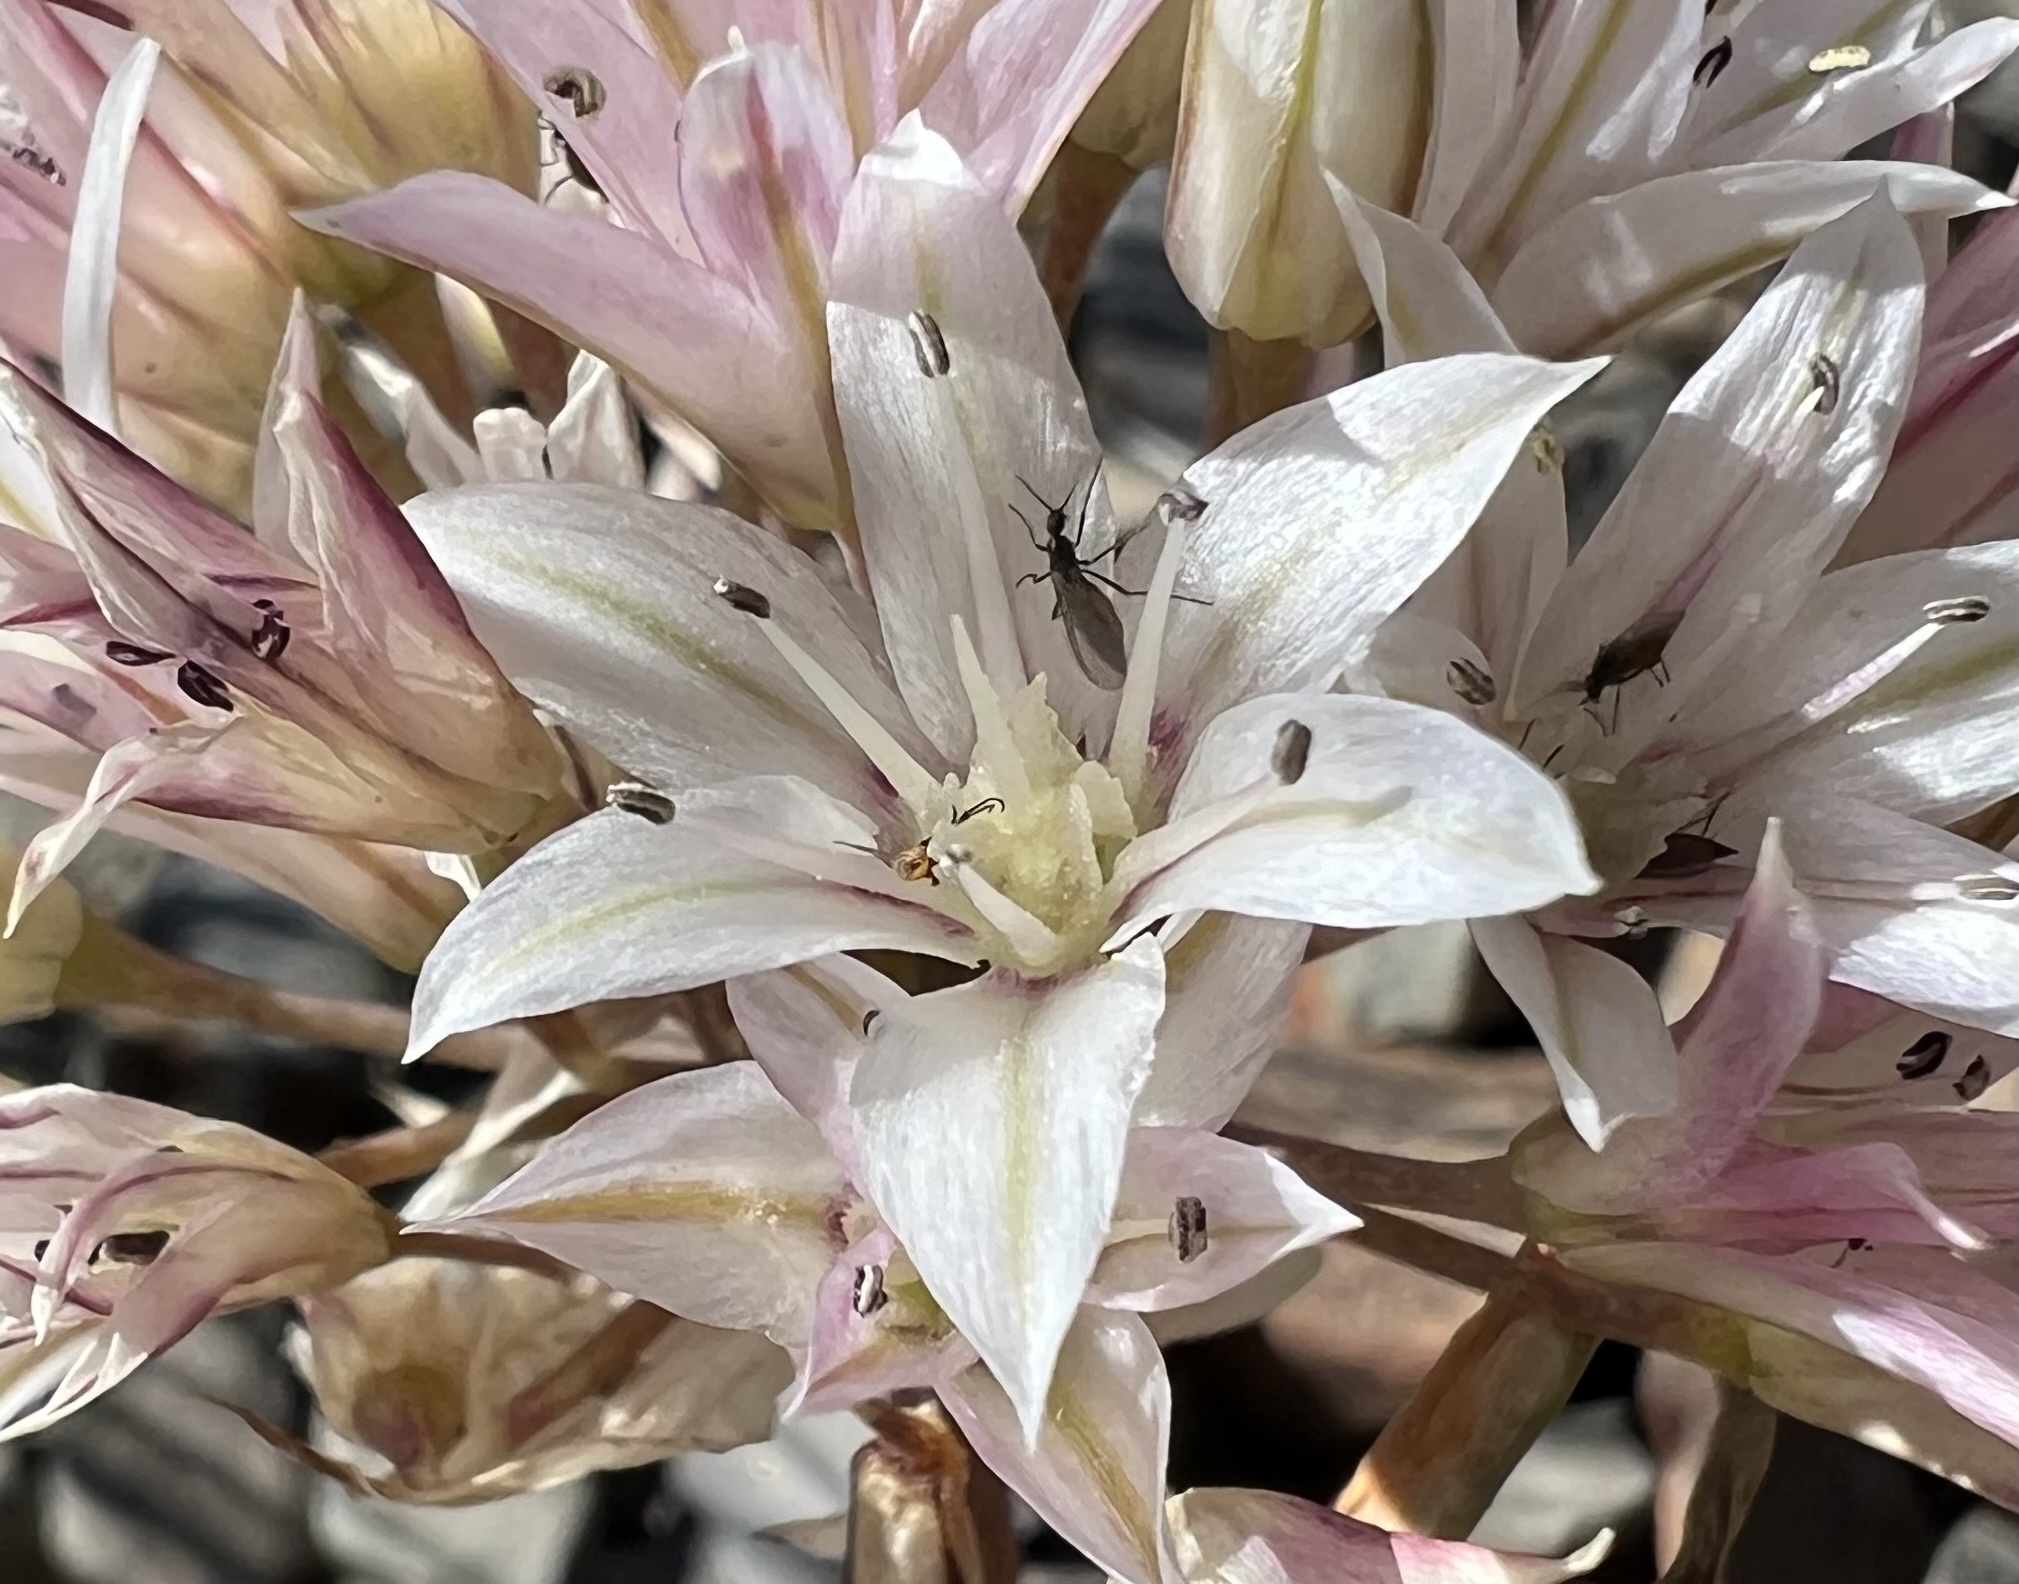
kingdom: Plantae
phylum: Tracheophyta
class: Liliopsida
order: Asparagales
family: Amaryllidaceae
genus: Allium
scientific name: Allium atrorubens
